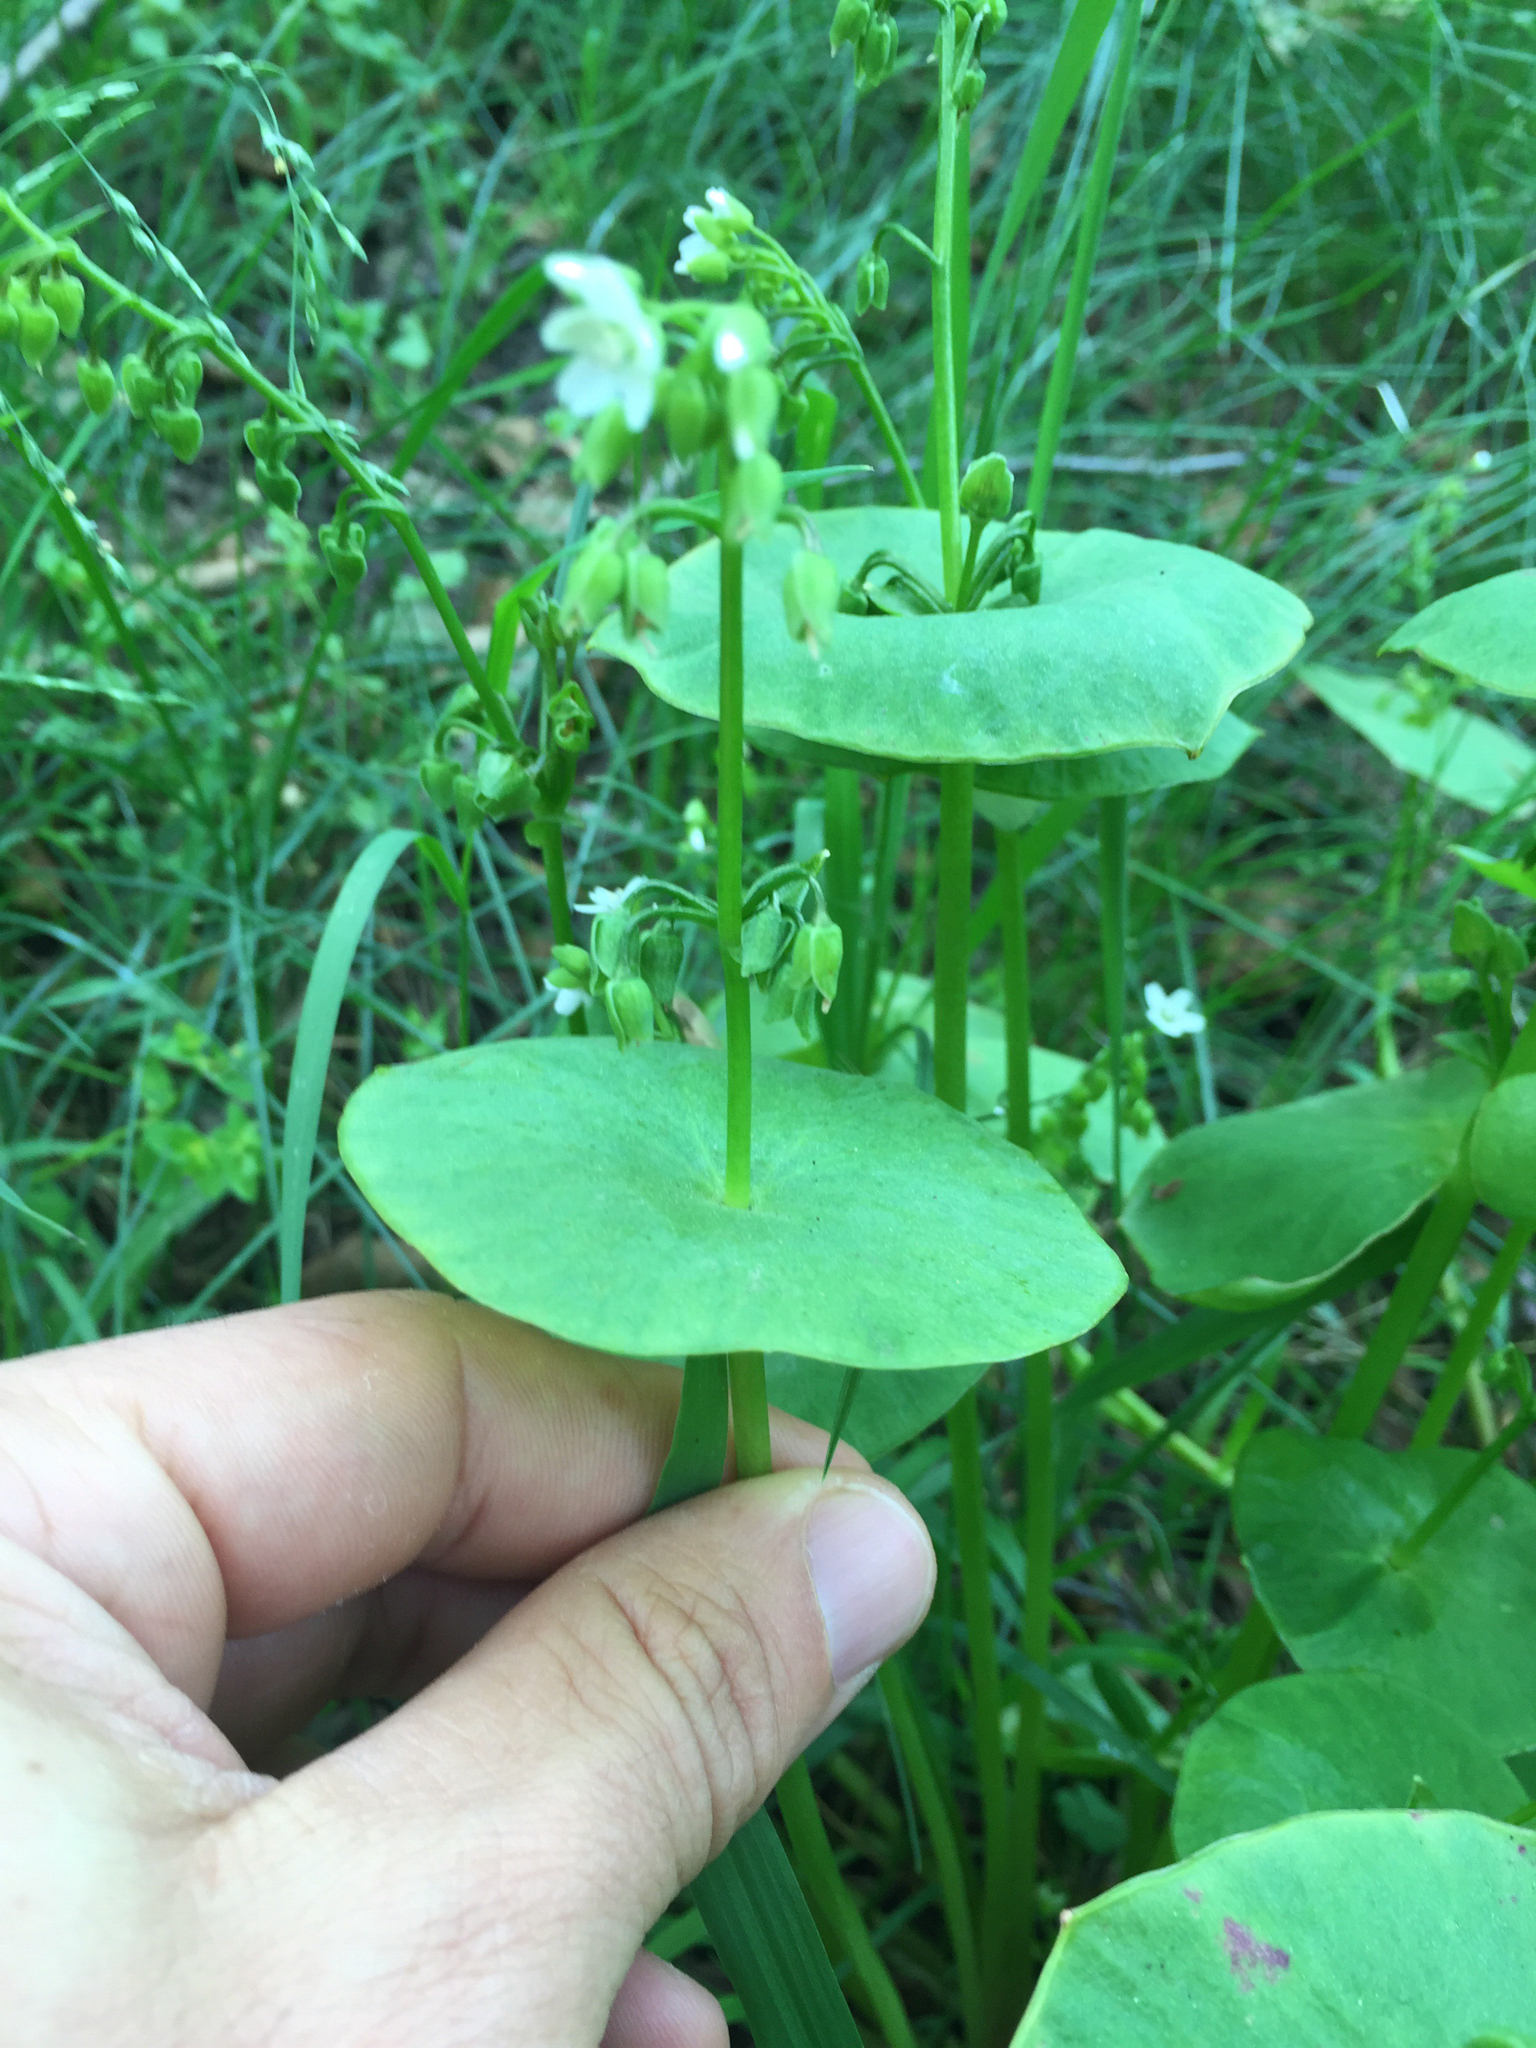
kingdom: Plantae
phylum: Tracheophyta
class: Magnoliopsida
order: Caryophyllales
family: Montiaceae
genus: Claytonia
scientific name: Claytonia perfoliata
